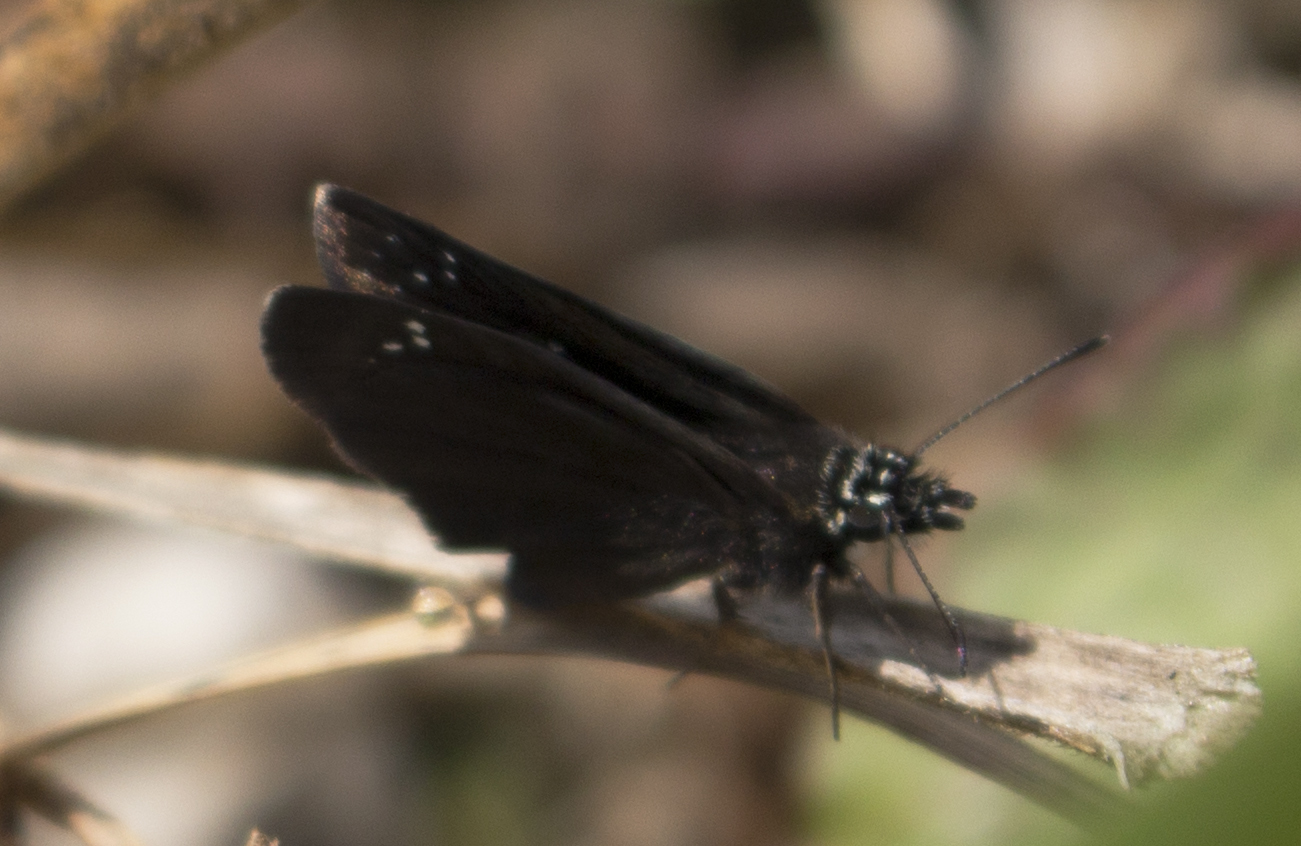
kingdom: Animalia
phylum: Arthropoda
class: Insecta
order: Lepidoptera
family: Hesperiidae
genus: Pholisora
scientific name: Pholisora catullus
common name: Common sootywing
